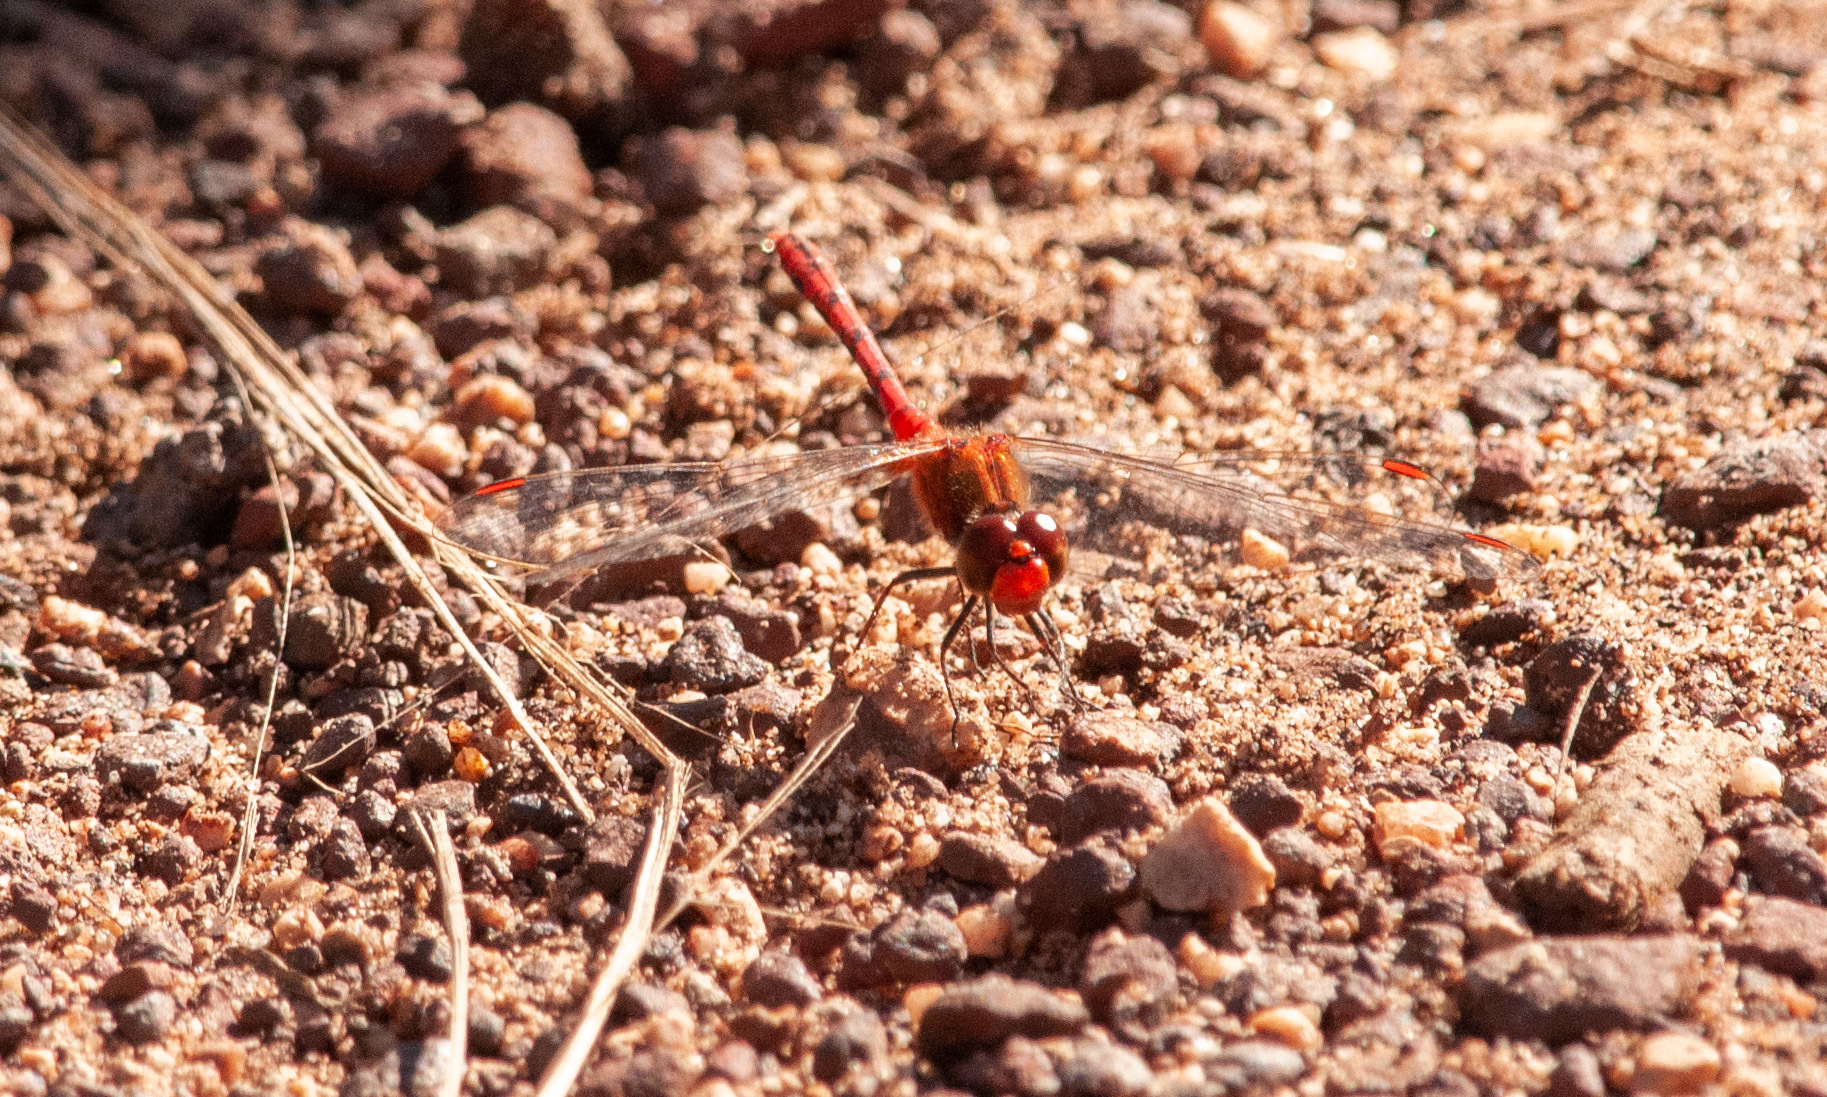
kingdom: Animalia
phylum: Arthropoda
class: Insecta
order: Odonata
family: Libellulidae
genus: Diplacodes
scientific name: Diplacodes bipunctata
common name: Red percher dragonfly
